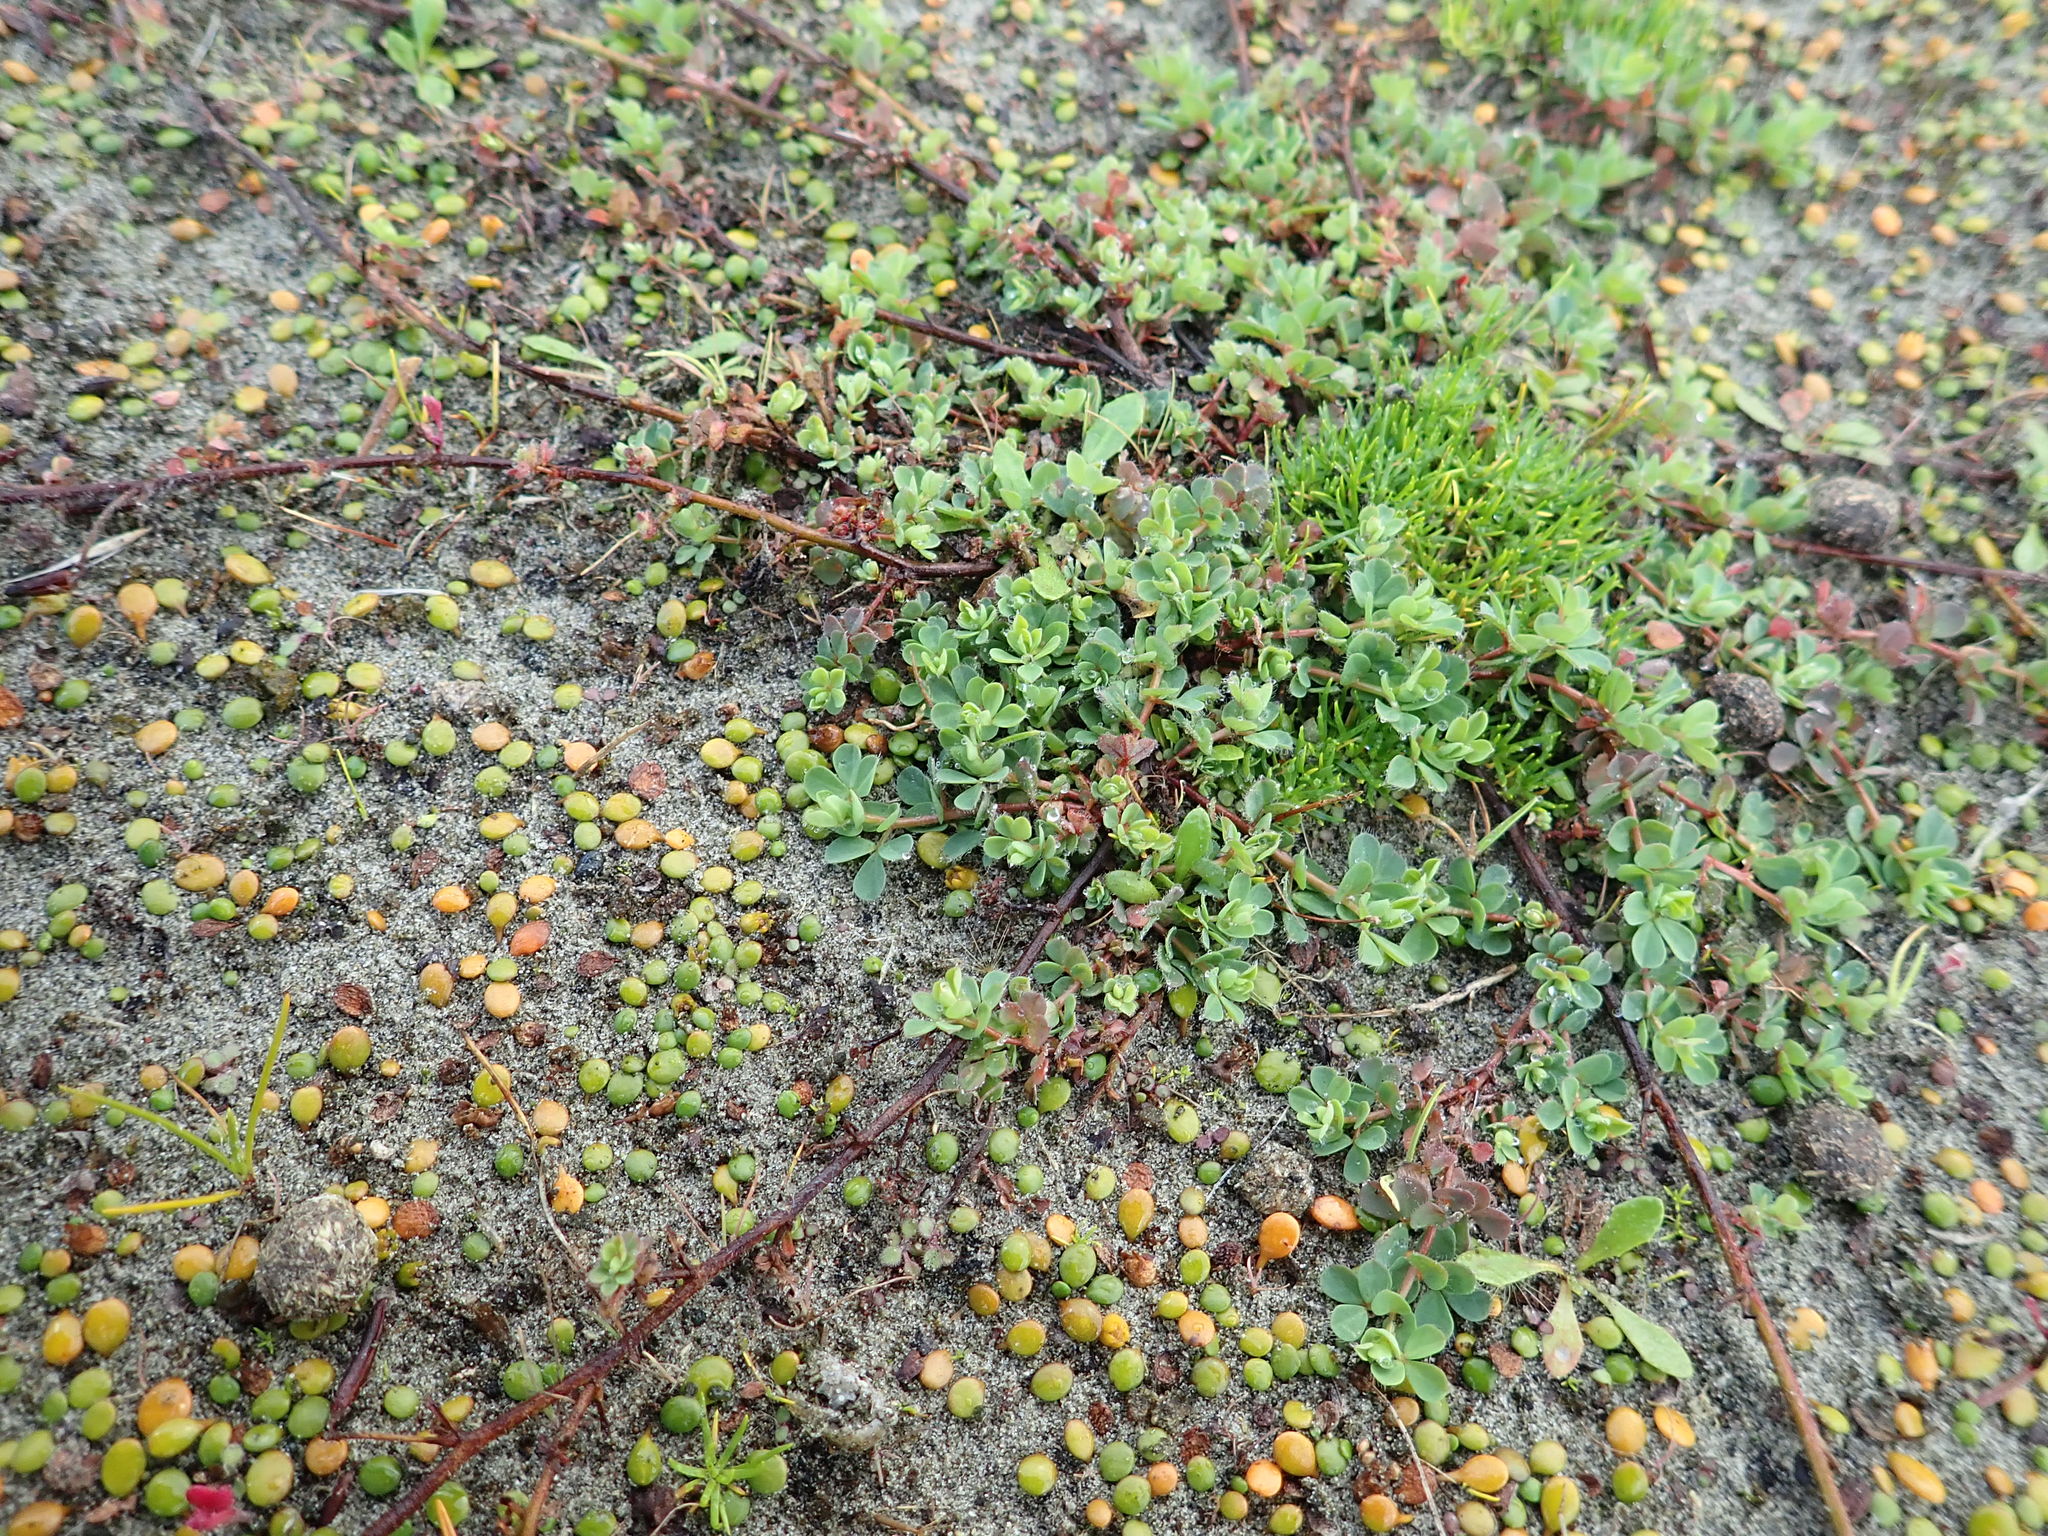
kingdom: Plantae
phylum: Tracheophyta
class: Magnoliopsida
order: Asterales
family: Goodeniaceae
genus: Goodenia
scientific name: Goodenia heenanii
